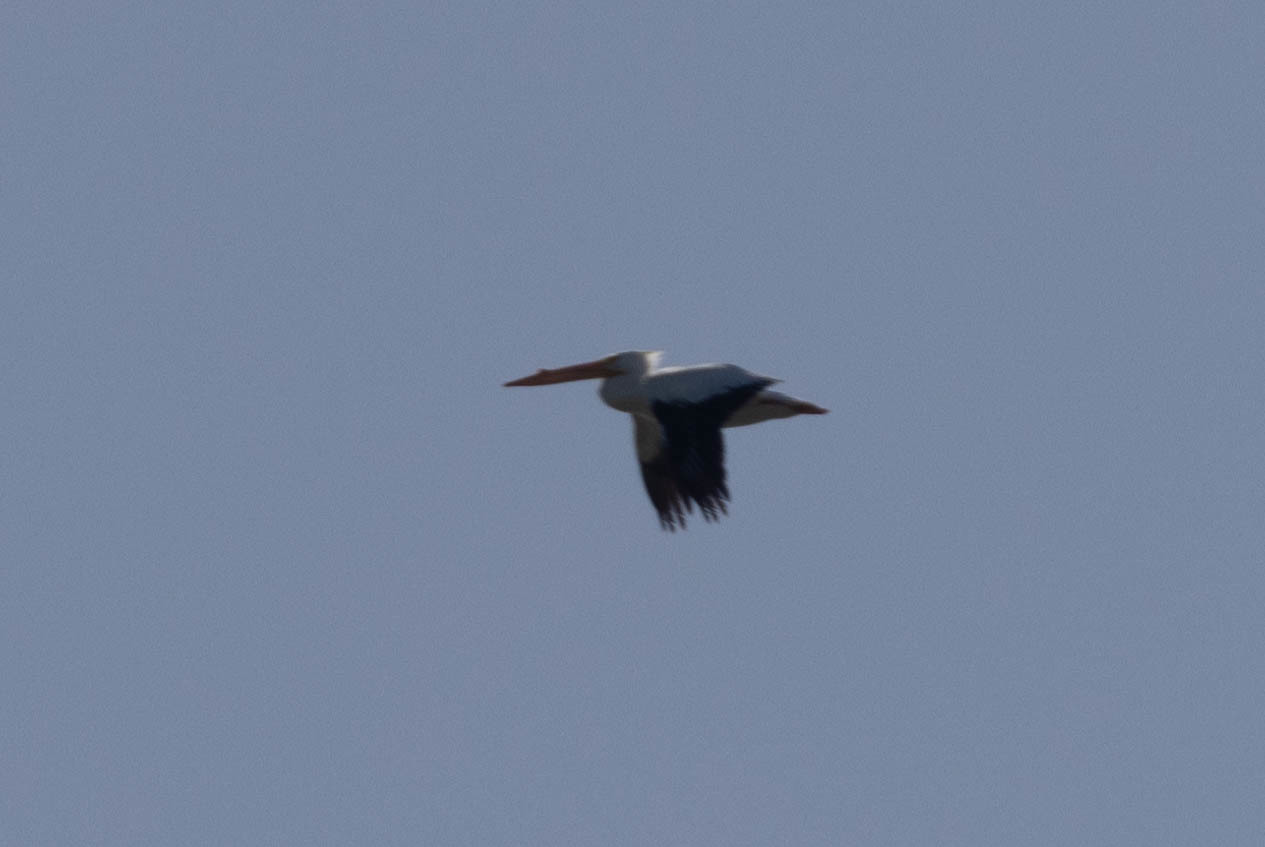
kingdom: Animalia
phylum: Chordata
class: Aves
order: Pelecaniformes
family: Pelecanidae
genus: Pelecanus
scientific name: Pelecanus erythrorhynchos
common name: American white pelican
